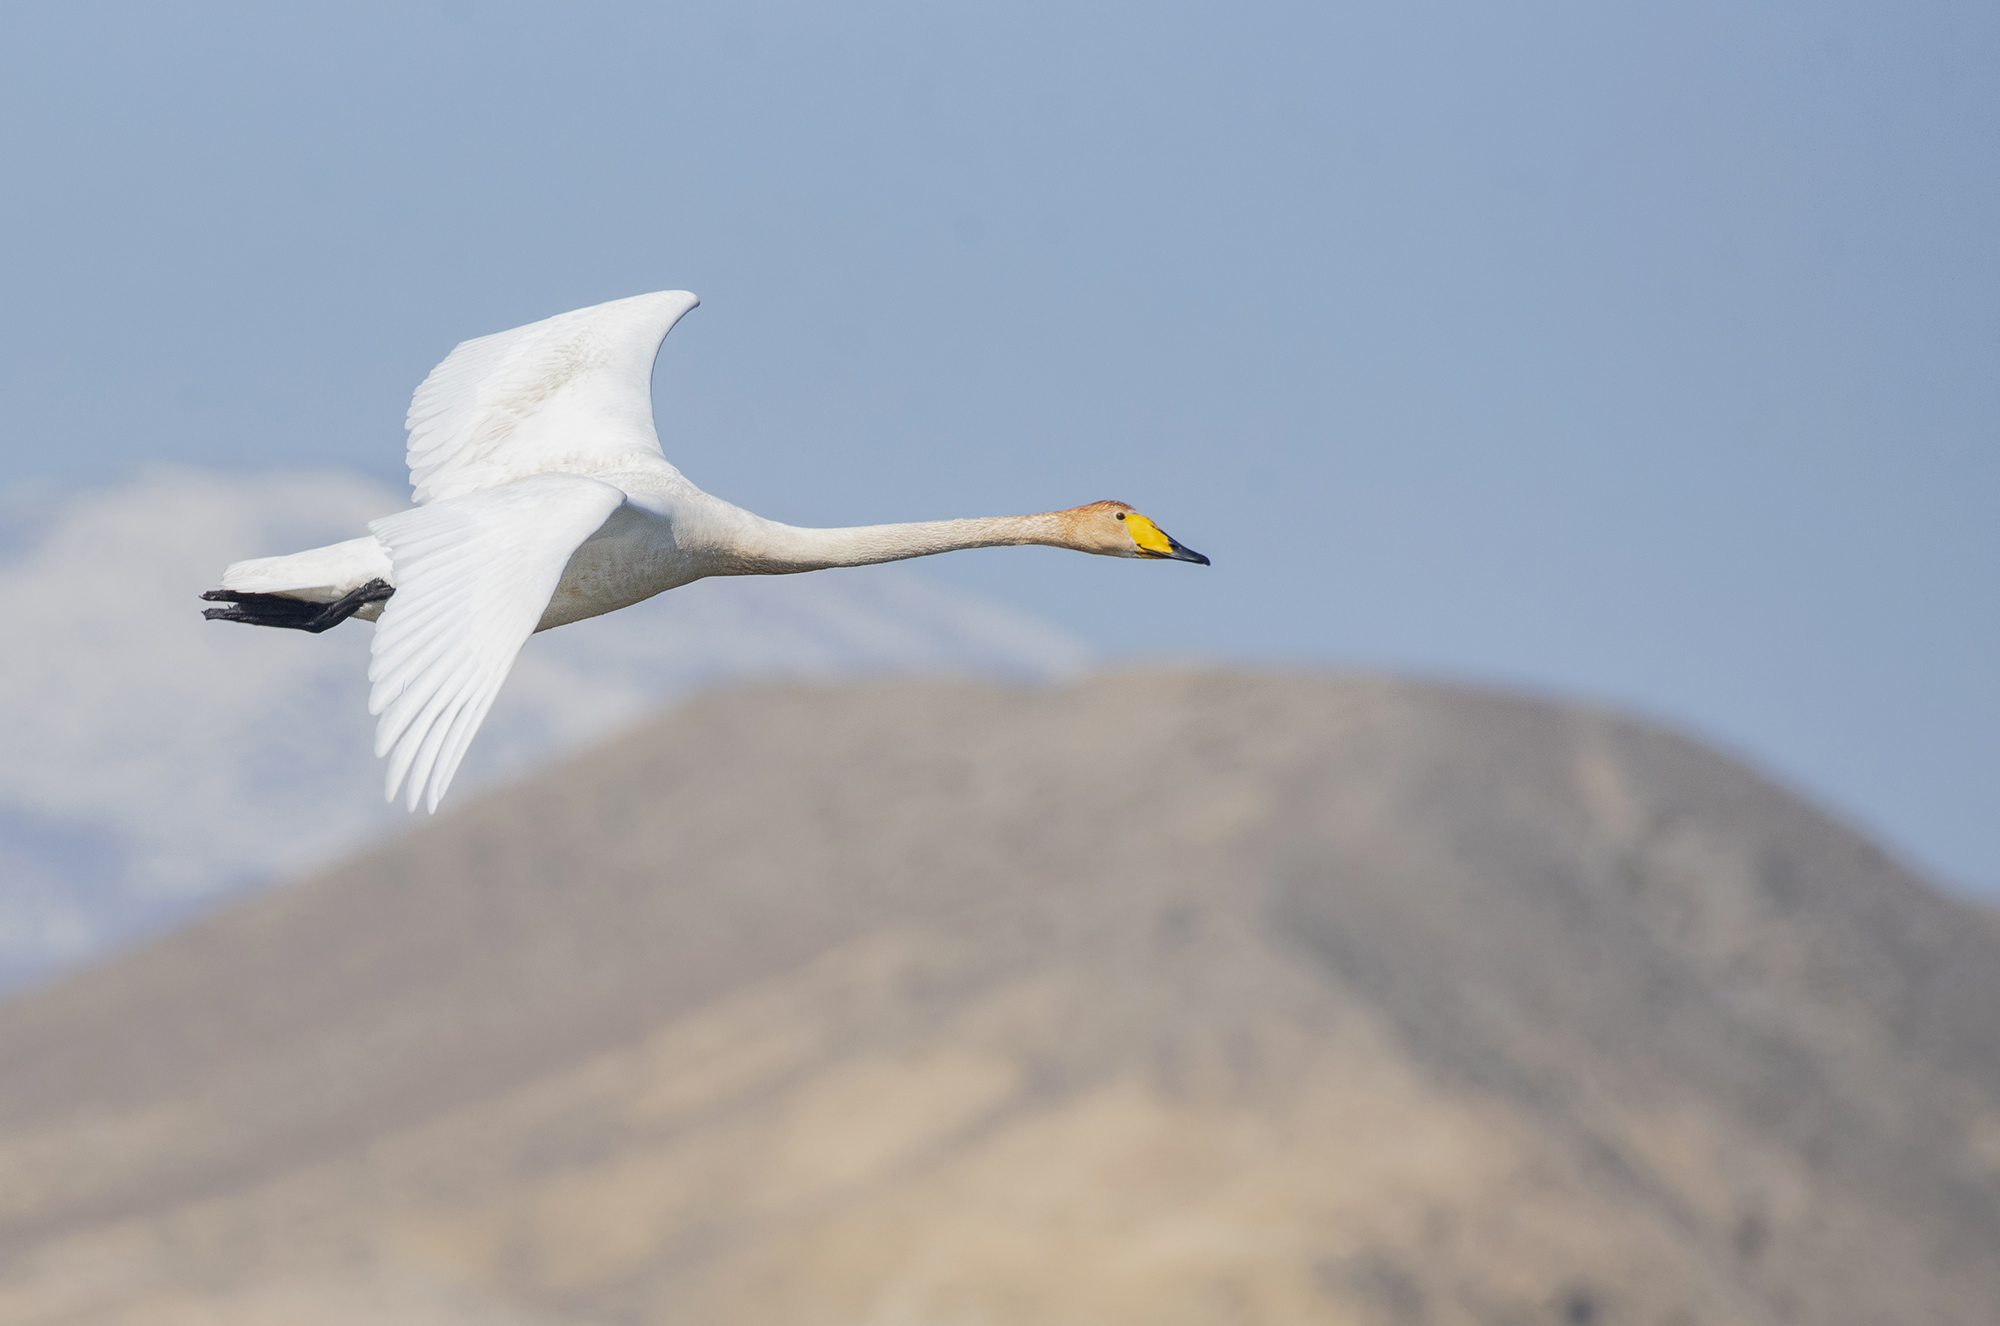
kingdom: Animalia
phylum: Chordata
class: Aves
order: Anseriformes
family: Anatidae
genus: Cygnus
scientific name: Cygnus cygnus
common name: Whooper swan
